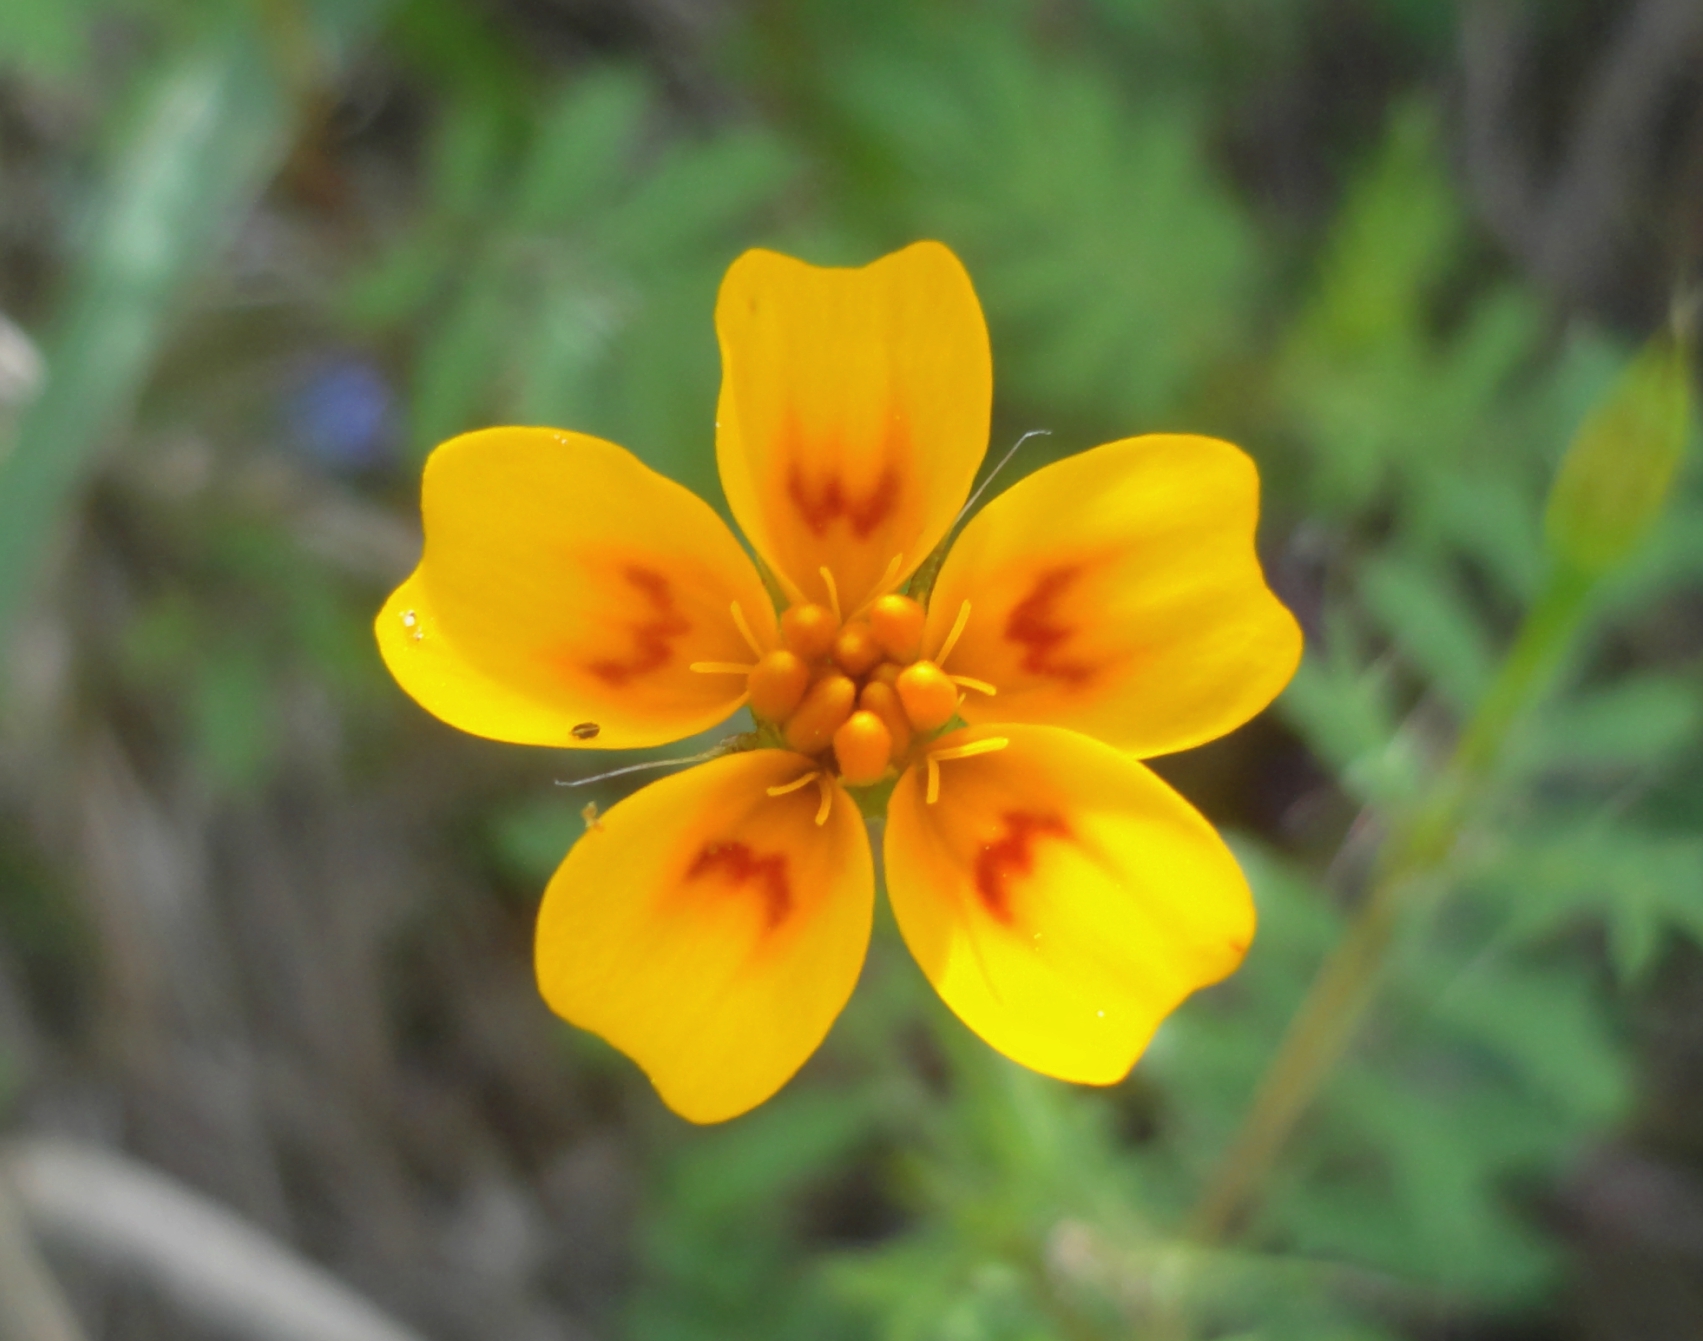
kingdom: Plantae
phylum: Tracheophyta
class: Magnoliopsida
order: Asterales
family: Asteraceae
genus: Tagetes
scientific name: Tagetes lunulata
